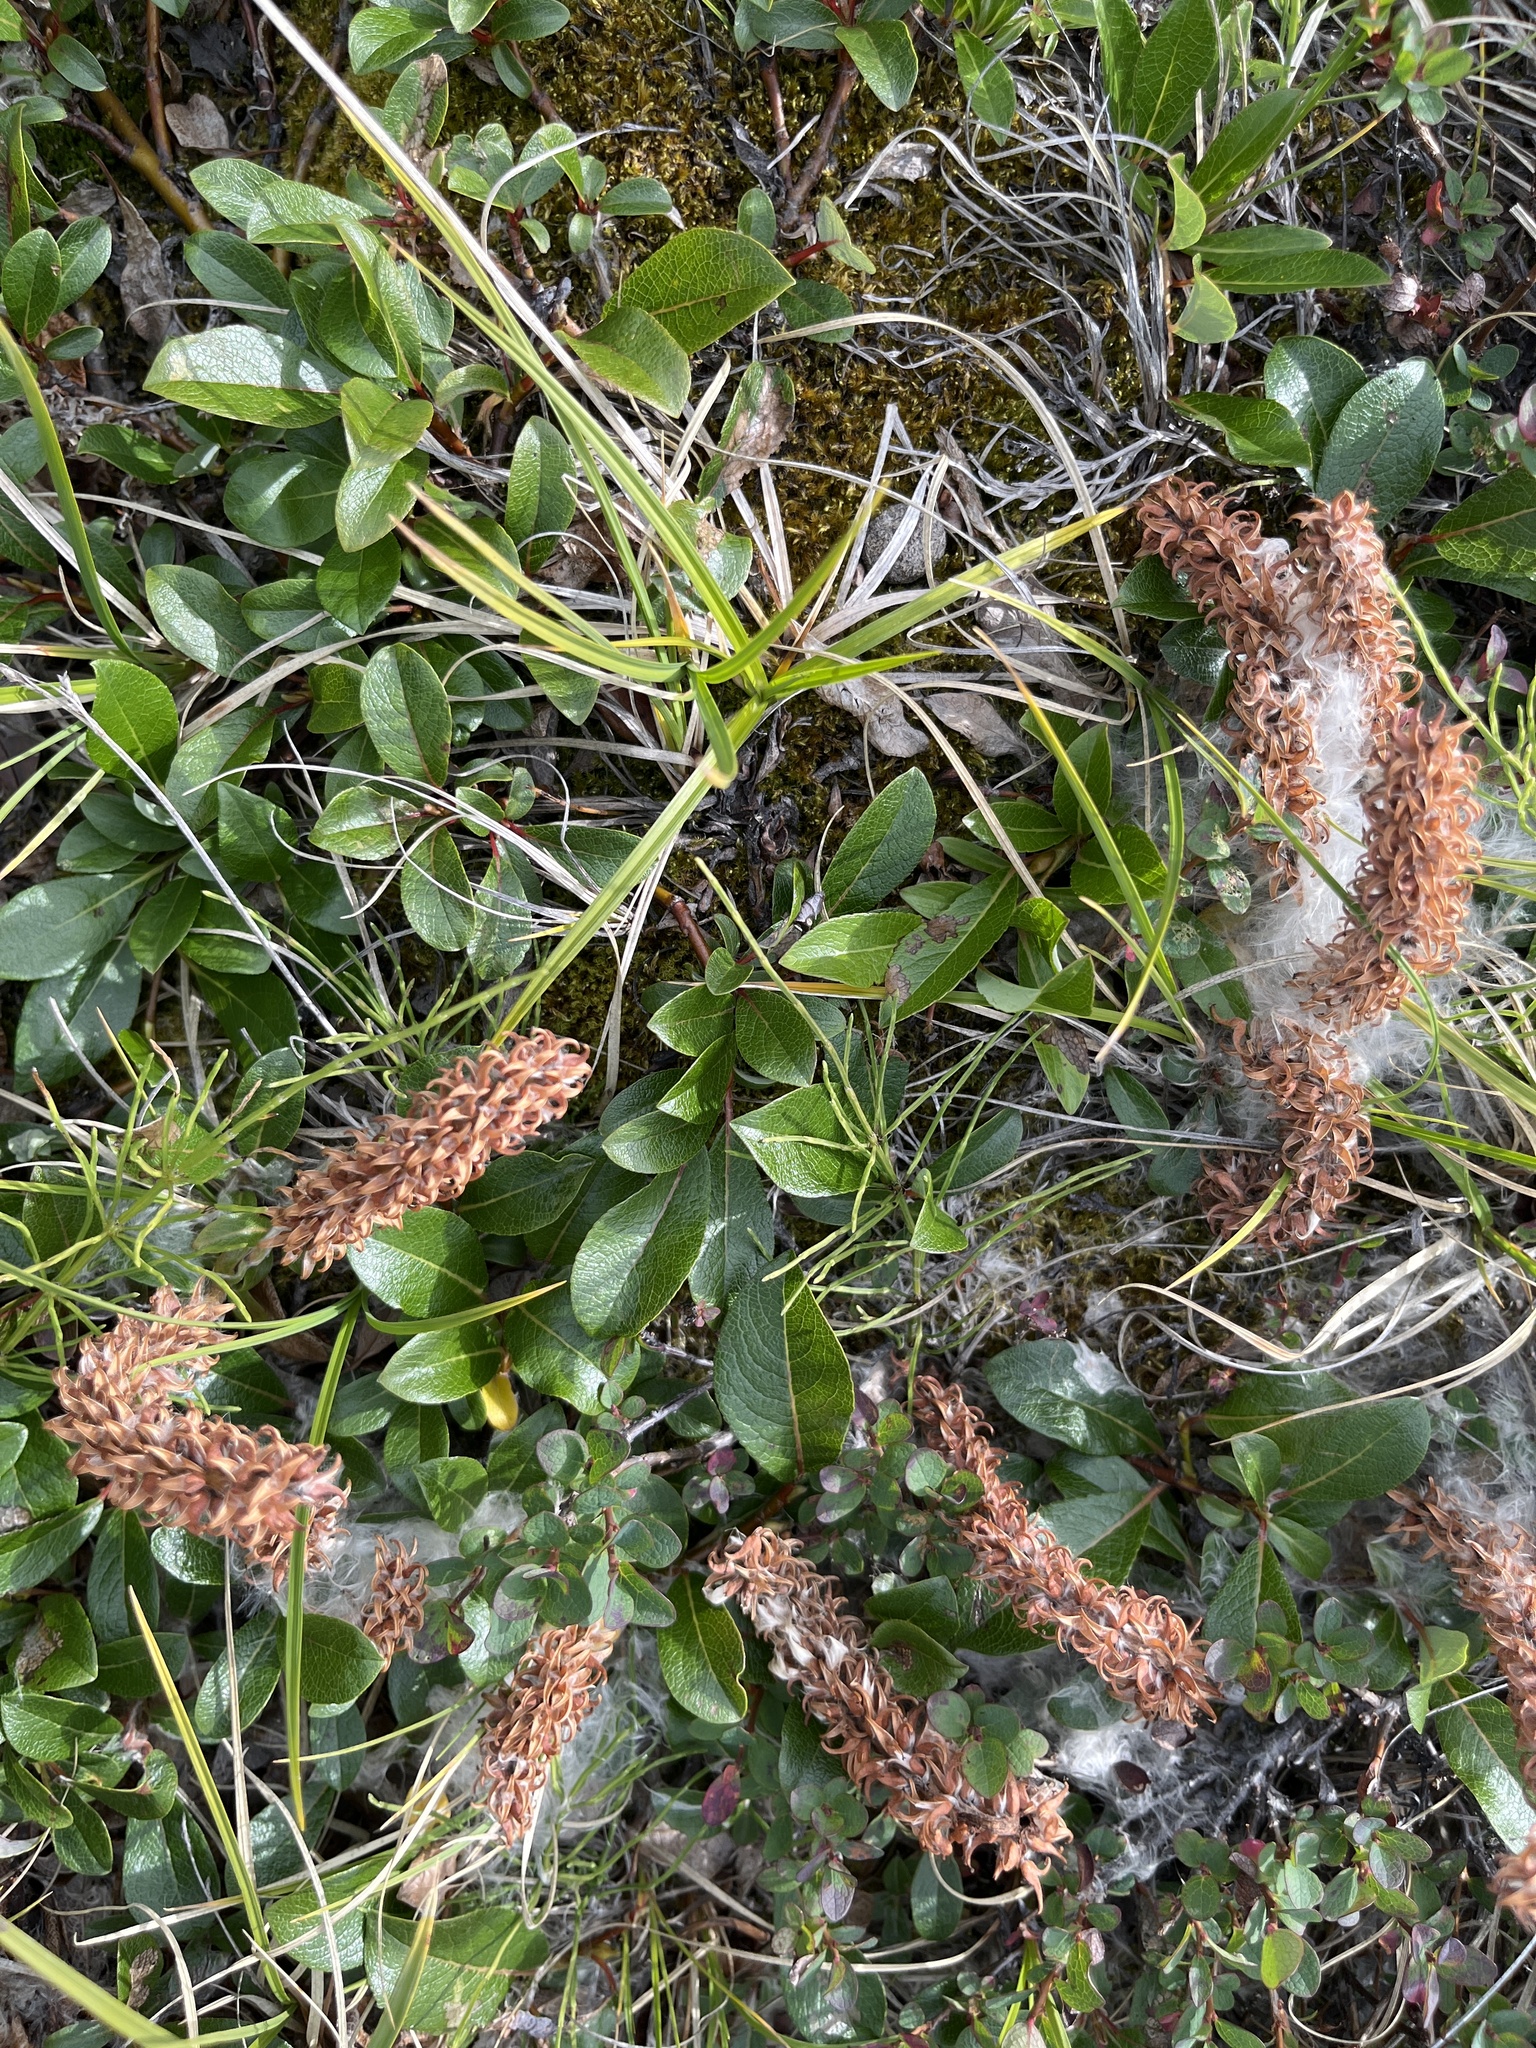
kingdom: Plantae
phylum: Tracheophyta
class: Magnoliopsida
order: Malpighiales
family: Salicaceae
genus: Salix
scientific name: Salix arctophila
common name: Greenland willow
